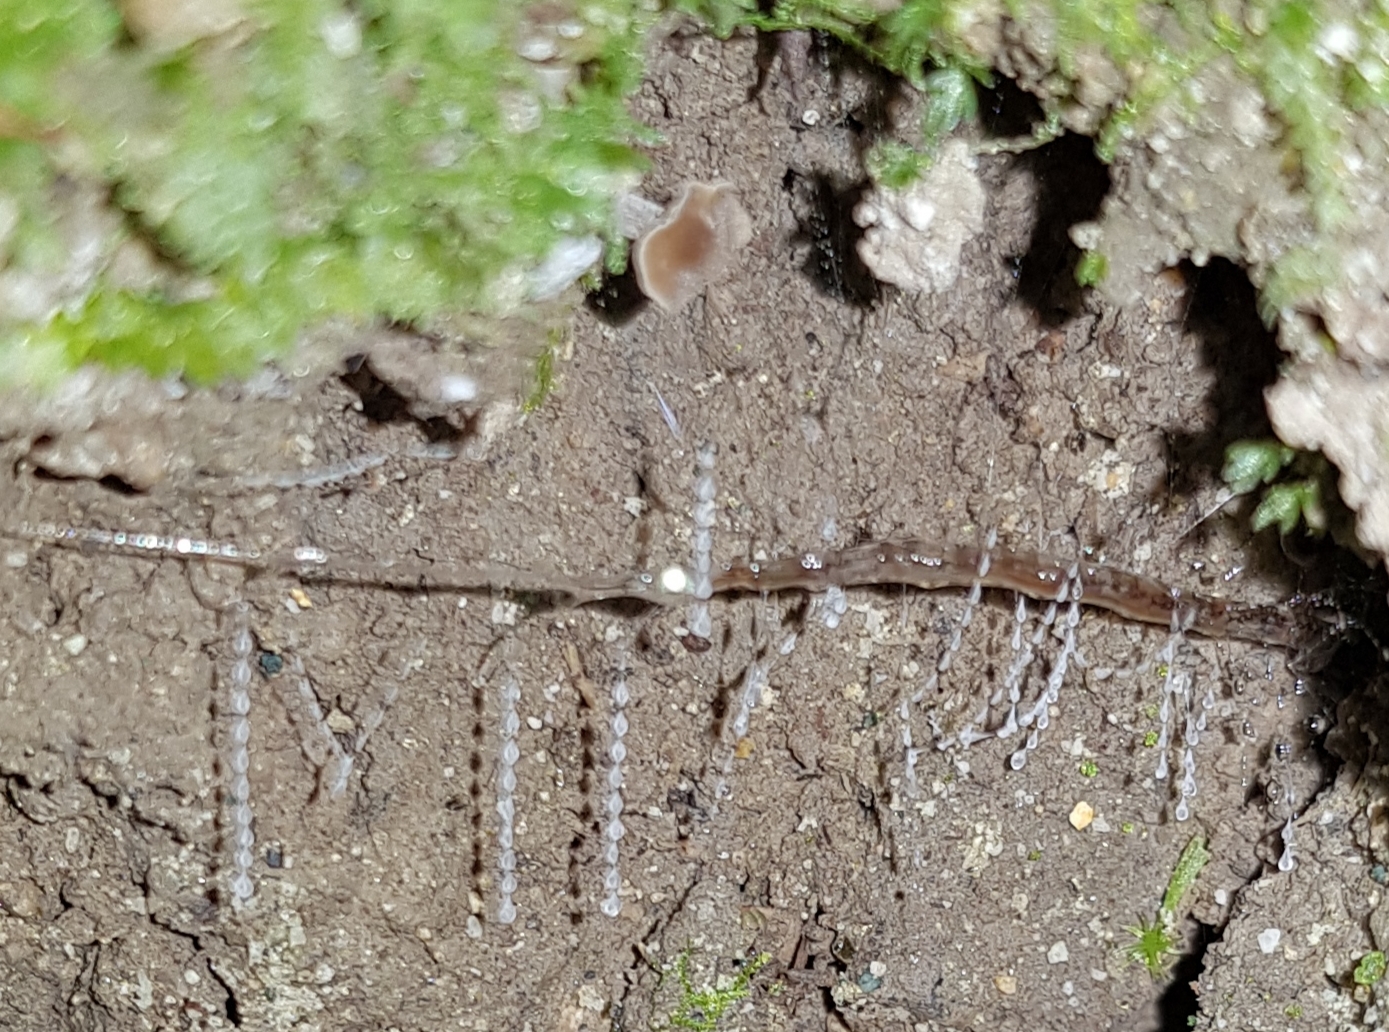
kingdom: Animalia
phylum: Arthropoda
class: Insecta
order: Diptera
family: Keroplatidae
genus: Arachnocampa
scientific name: Arachnocampa luminosa
